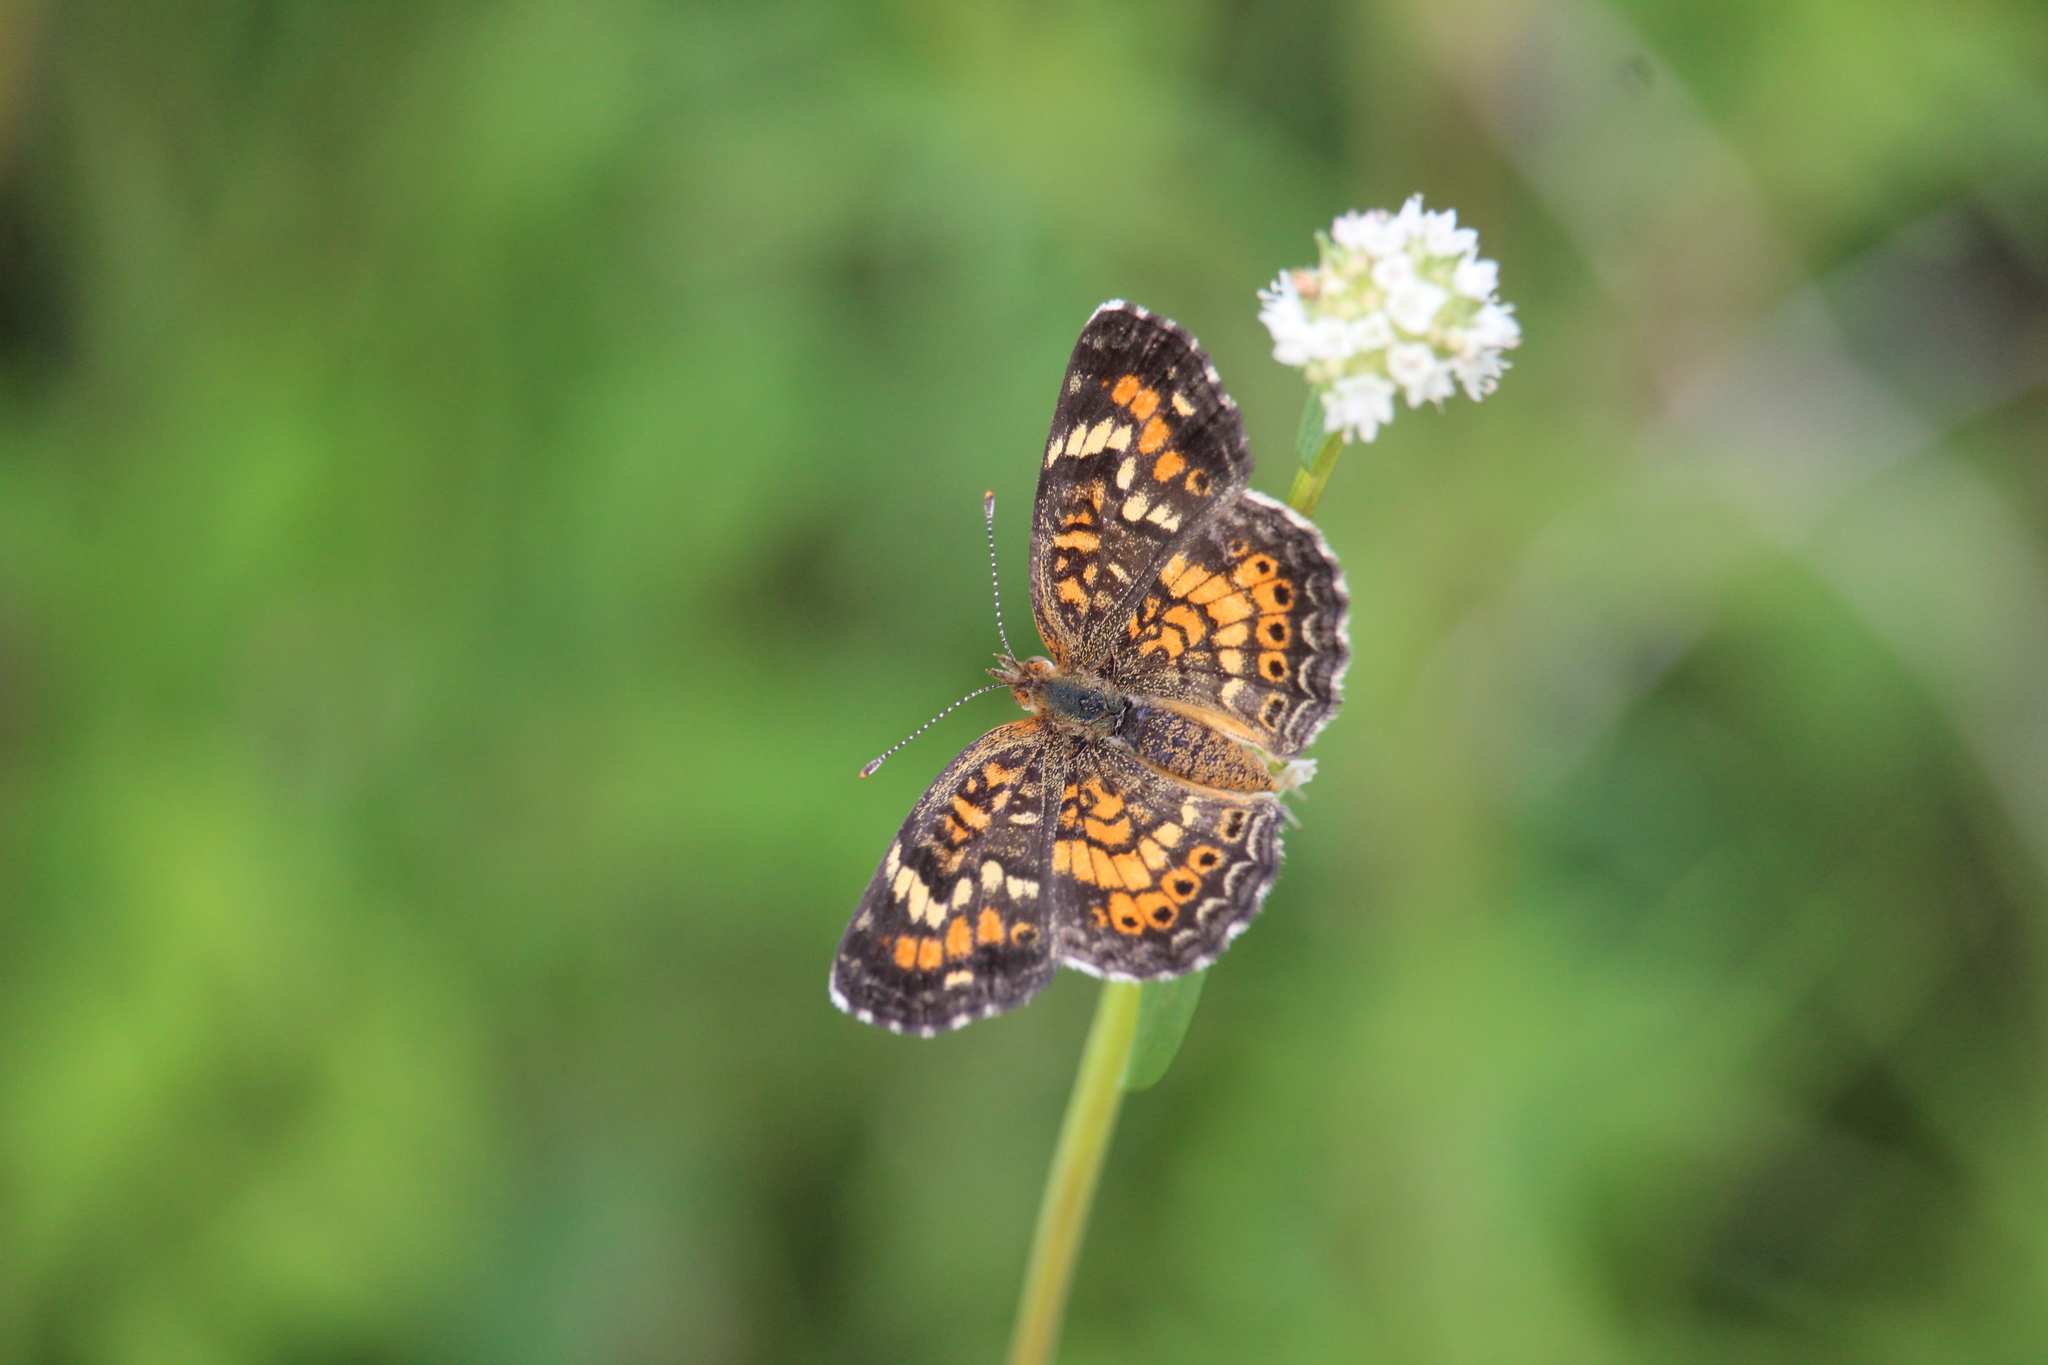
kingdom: Animalia
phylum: Arthropoda
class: Insecta
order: Lepidoptera
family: Nymphalidae
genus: Phyciodes
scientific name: Phyciodes phaon
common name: Phaon crescent
